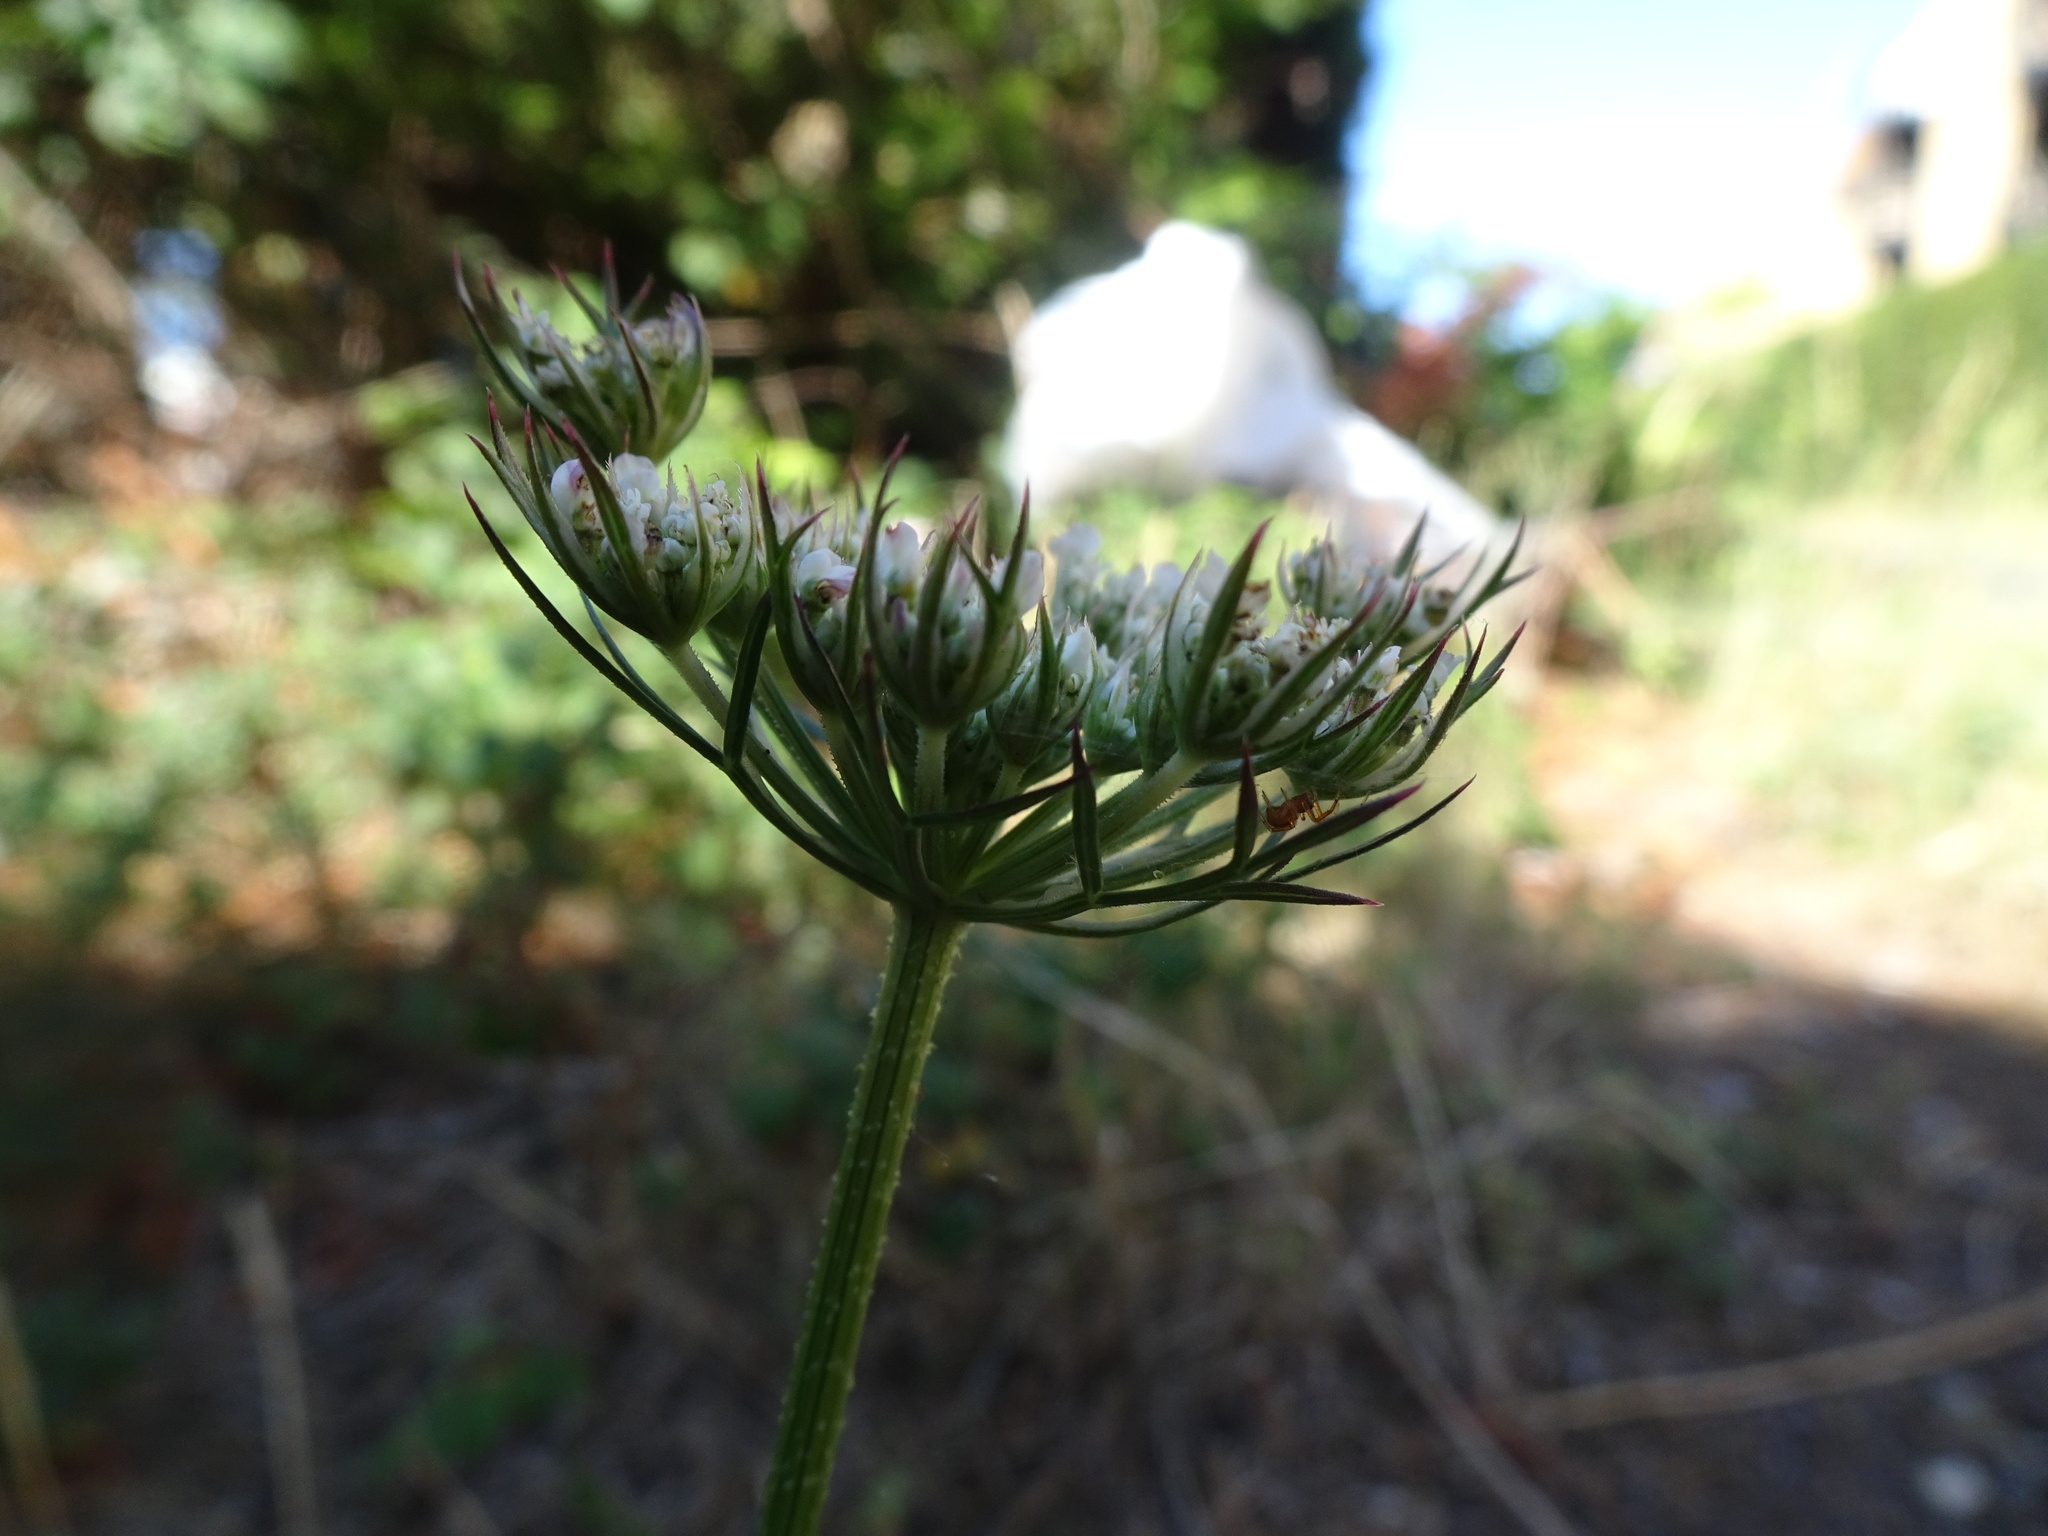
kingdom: Plantae
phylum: Tracheophyta
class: Magnoliopsida
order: Apiales
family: Apiaceae
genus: Daucus
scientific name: Daucus carota
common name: Wild carrot
